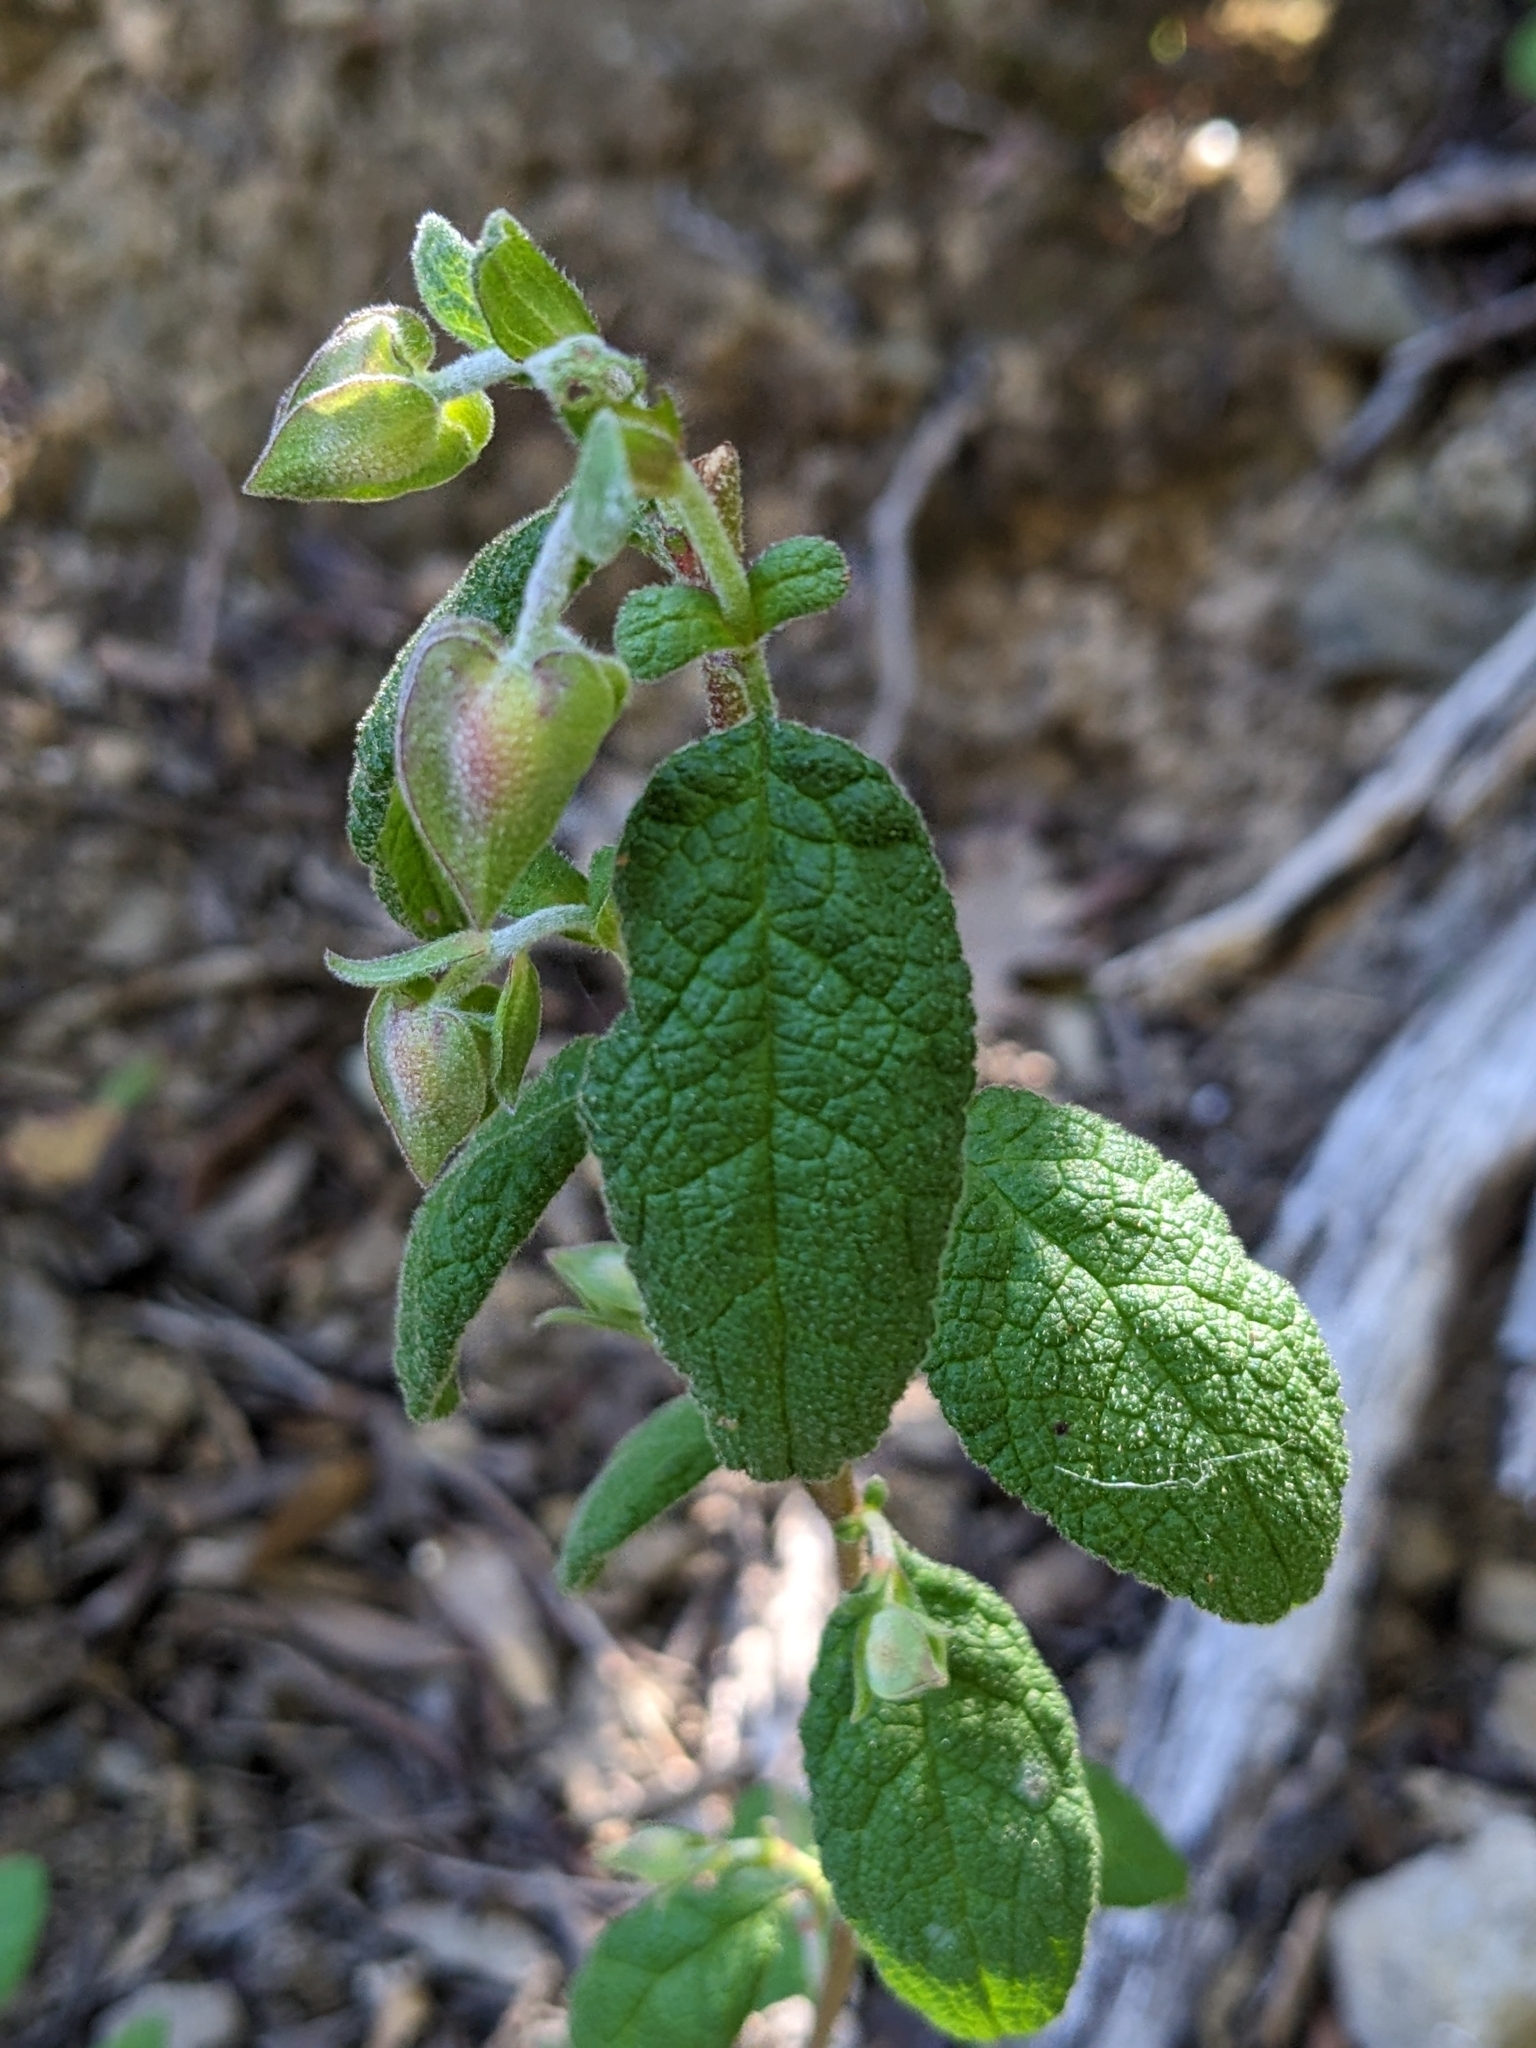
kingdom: Plantae
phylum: Tracheophyta
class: Magnoliopsida
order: Malvales
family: Cistaceae
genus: Cistus
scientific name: Cistus salviifolius
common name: Salvia cistus
